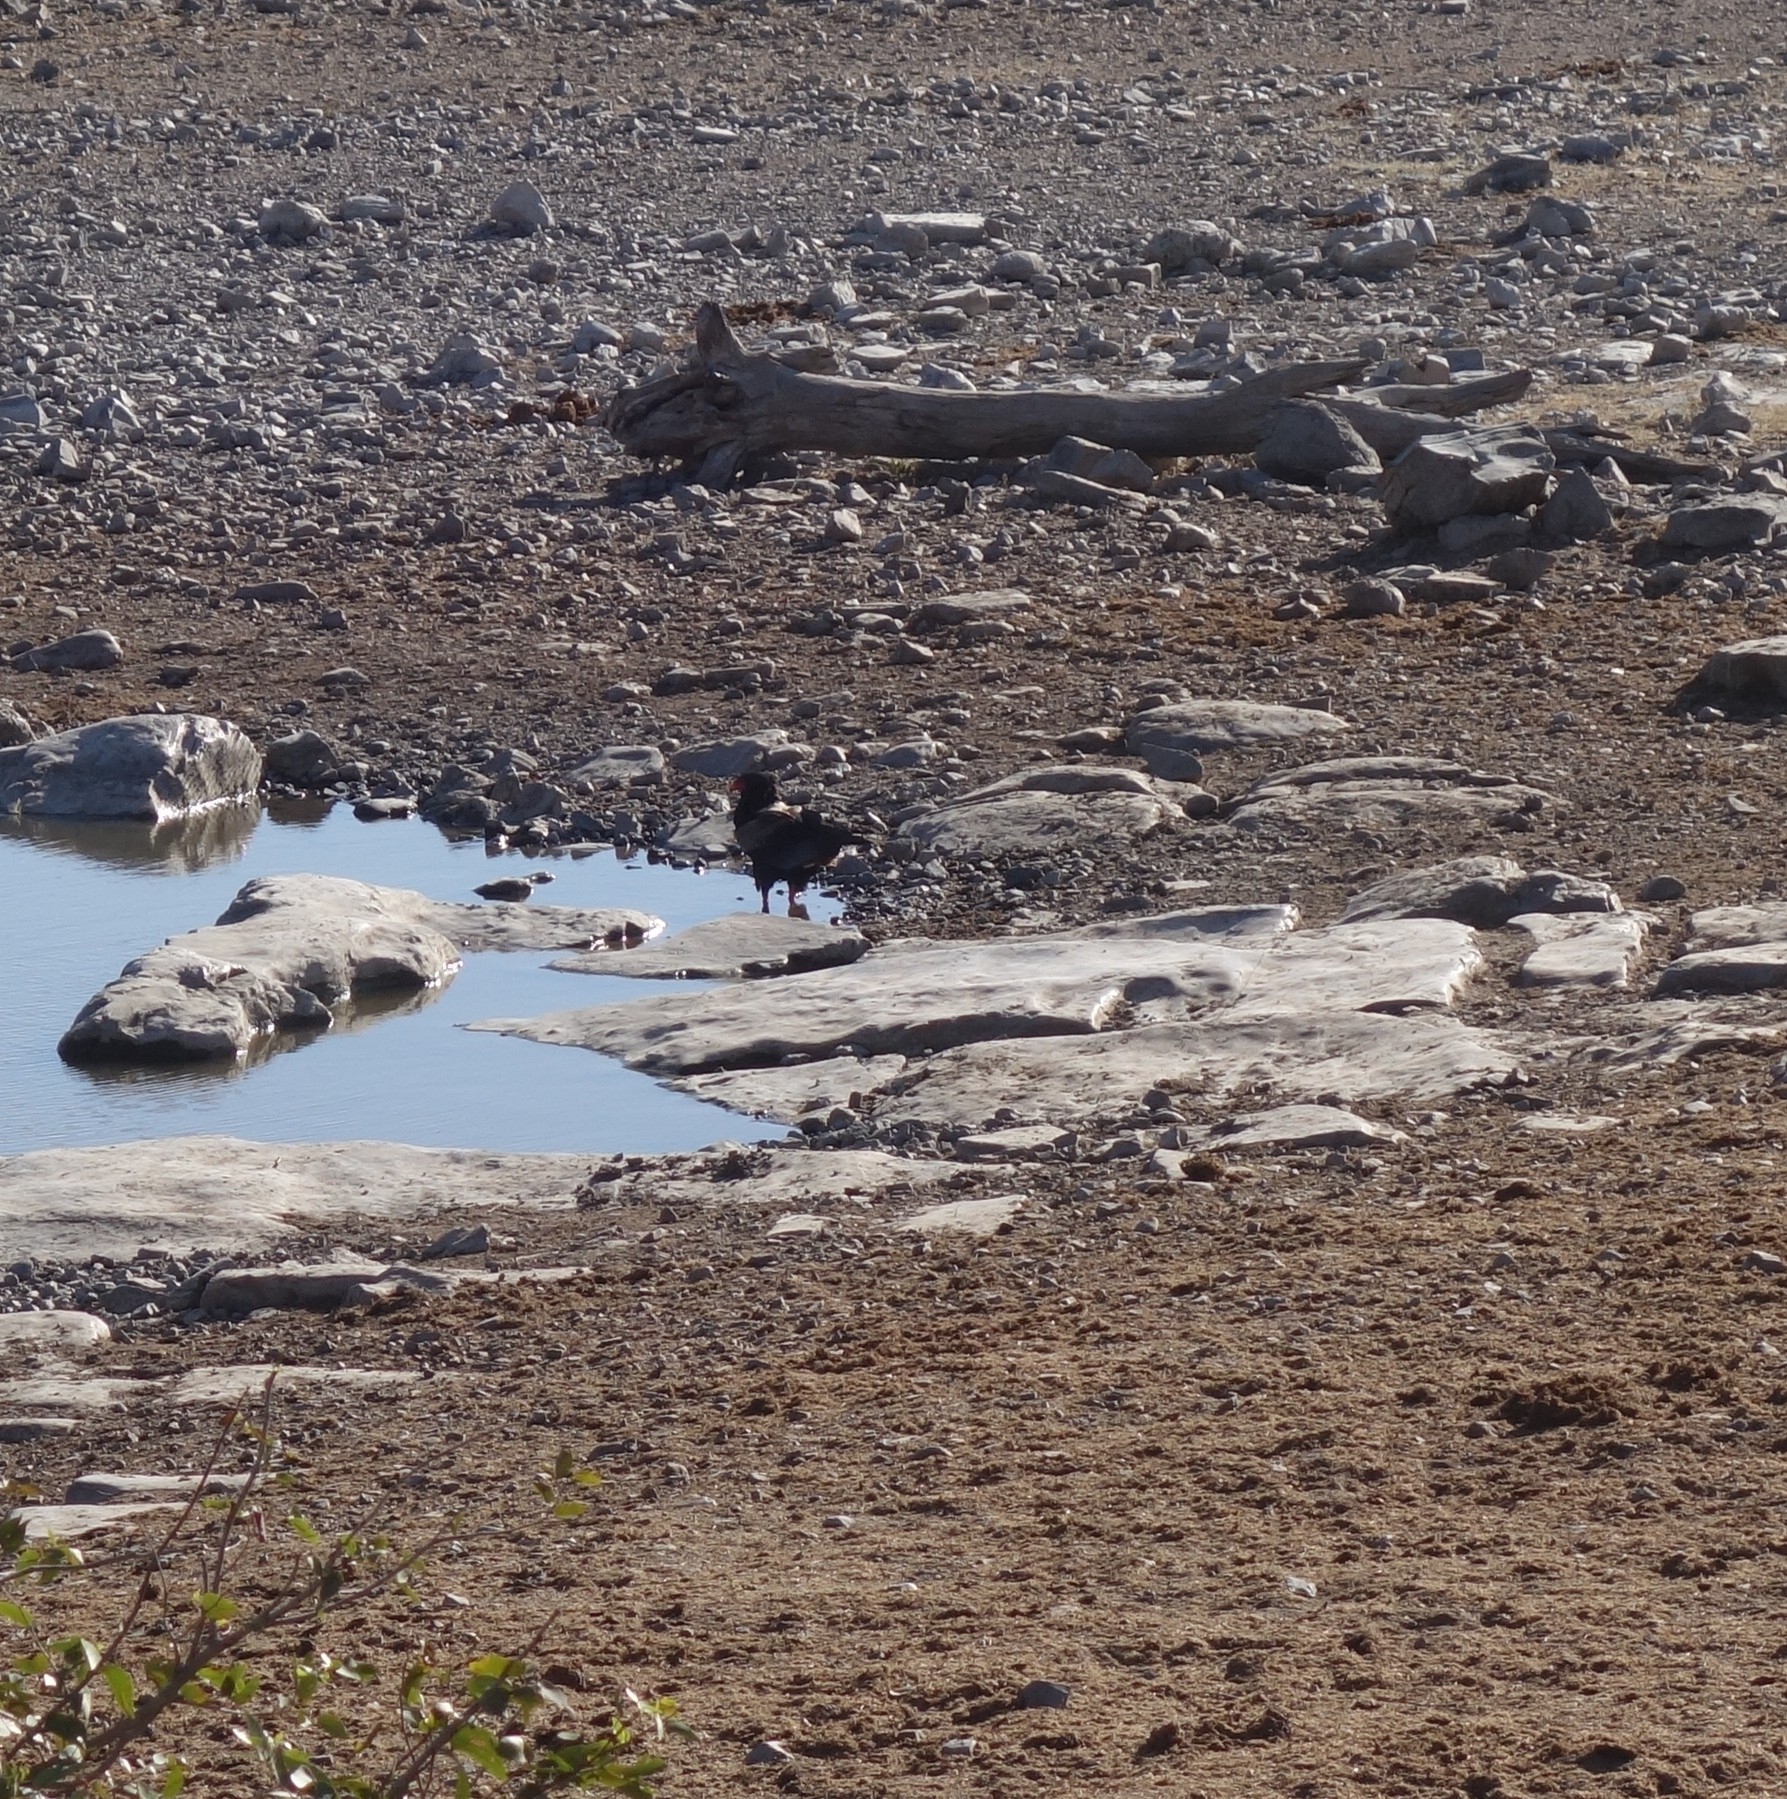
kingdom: Animalia
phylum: Chordata
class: Aves
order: Accipitriformes
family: Accipitridae
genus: Terathopius
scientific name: Terathopius ecaudatus
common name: Bateleur
